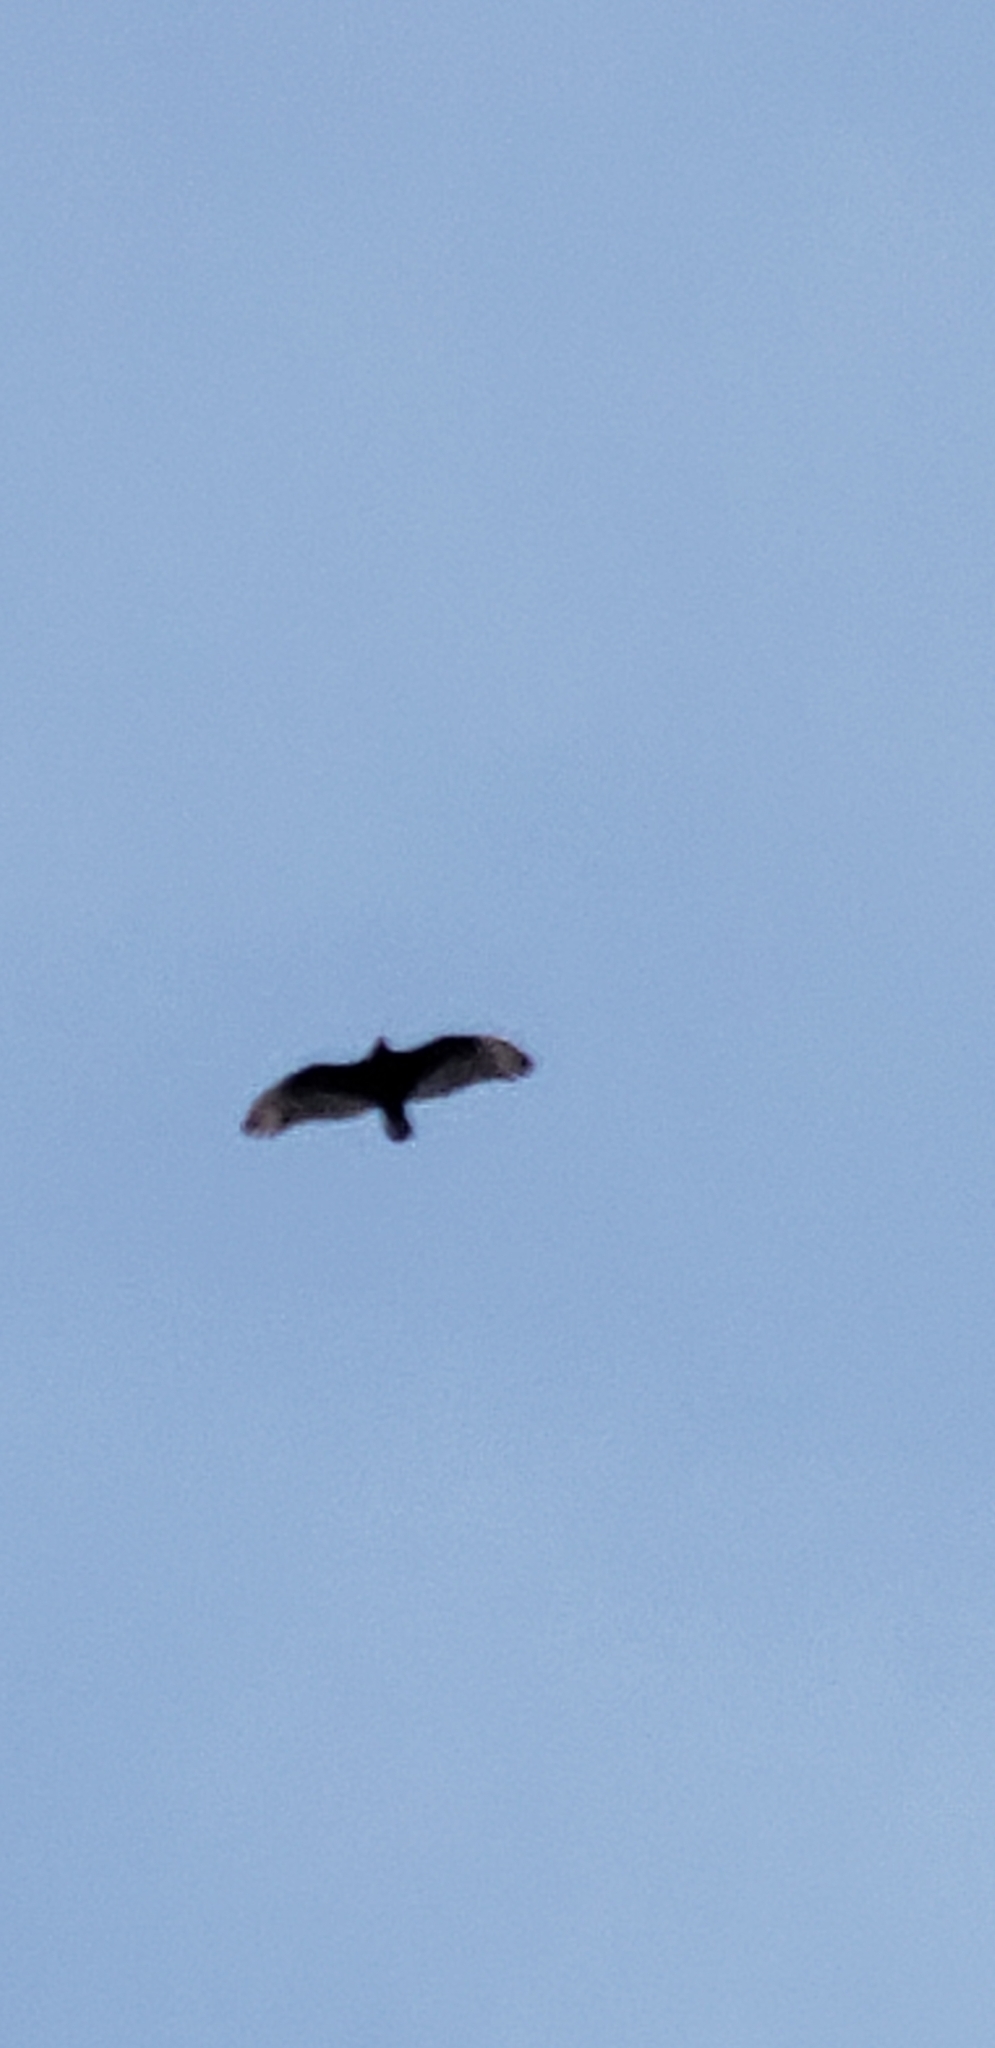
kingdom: Animalia
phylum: Chordata
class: Aves
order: Accipitriformes
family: Cathartidae
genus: Cathartes
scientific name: Cathartes aura
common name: Turkey vulture
